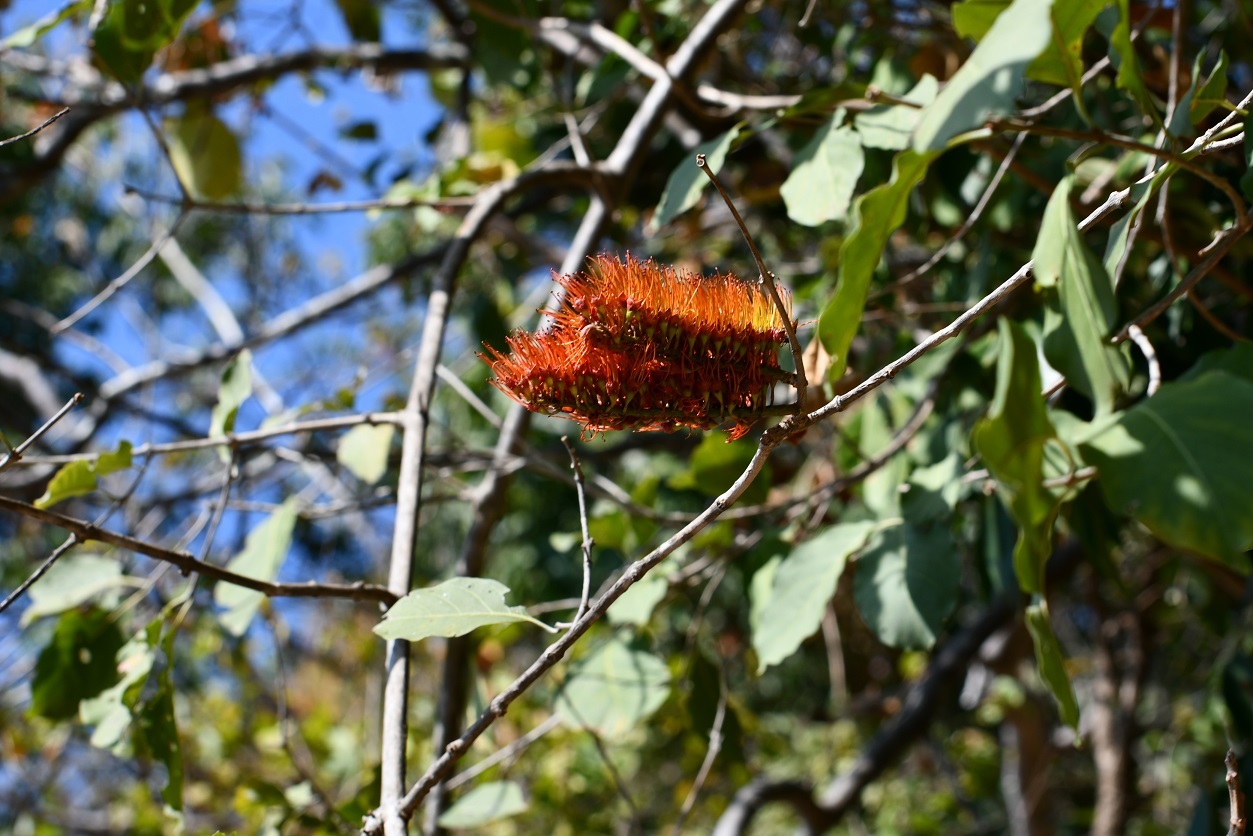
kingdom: Plantae
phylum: Tracheophyta
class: Magnoliopsida
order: Myrtales
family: Combretaceae
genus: Combretum
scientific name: Combretum farinosum
